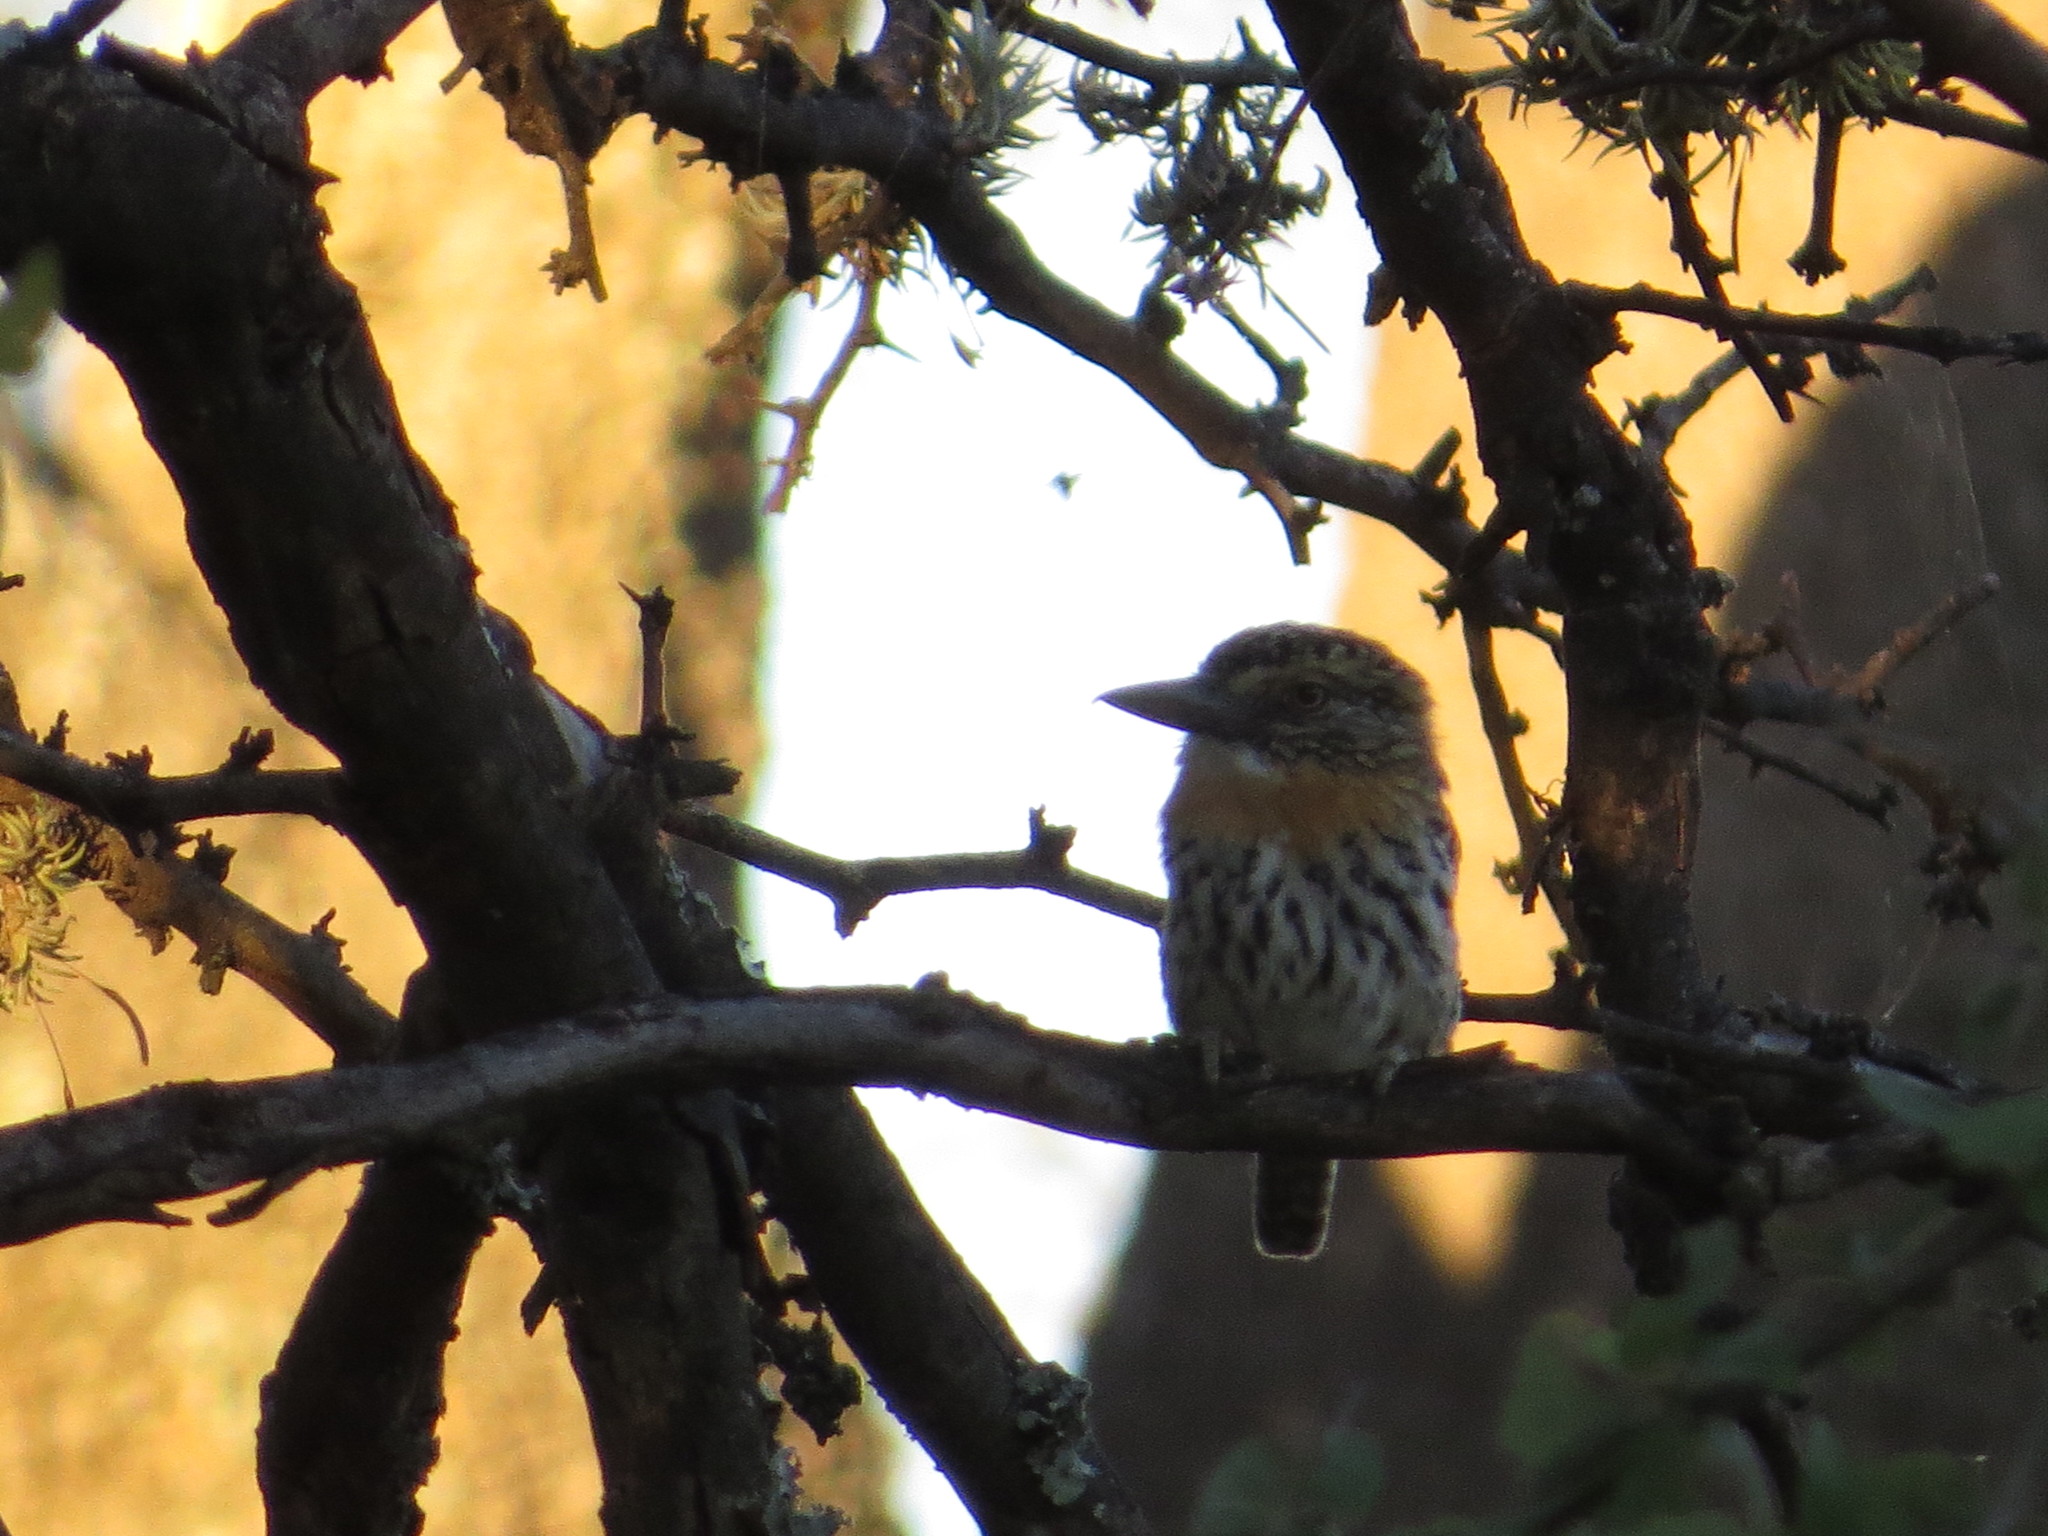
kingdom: Animalia
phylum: Chordata
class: Aves
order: Piciformes
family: Bucconidae
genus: Nystalus
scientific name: Nystalus maculatus
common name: Caatinga puffbird
